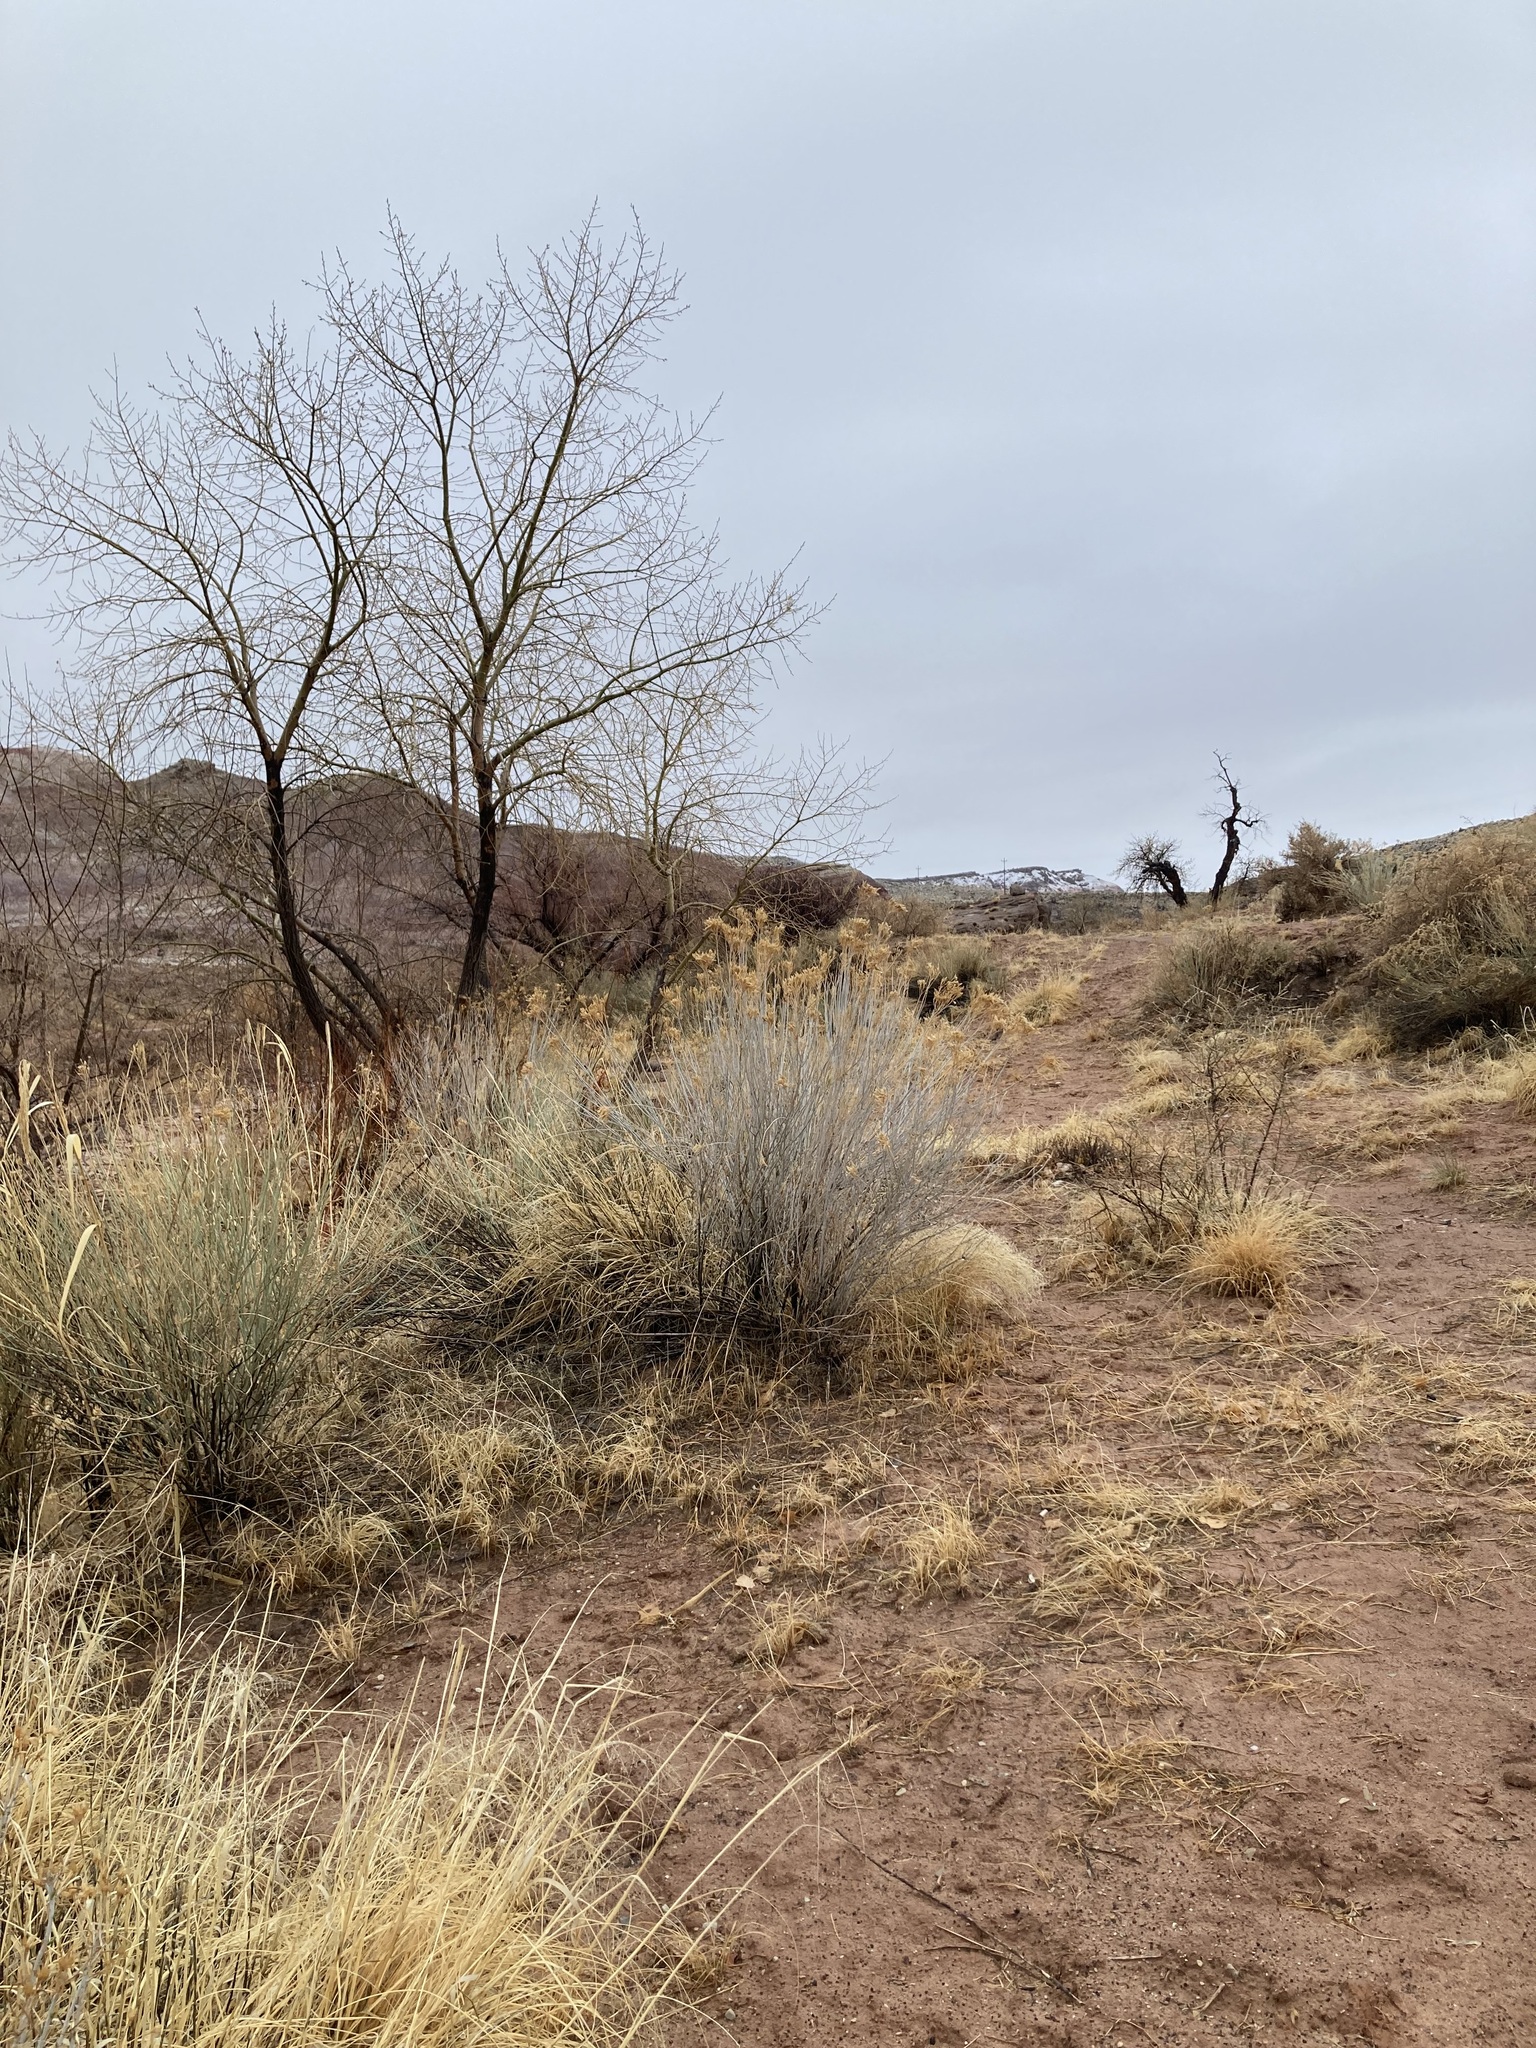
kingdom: Plantae
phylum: Tracheophyta
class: Magnoliopsida
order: Asterales
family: Asteraceae
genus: Ericameria
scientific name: Ericameria nauseosa
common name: Rubber rabbitbrush
